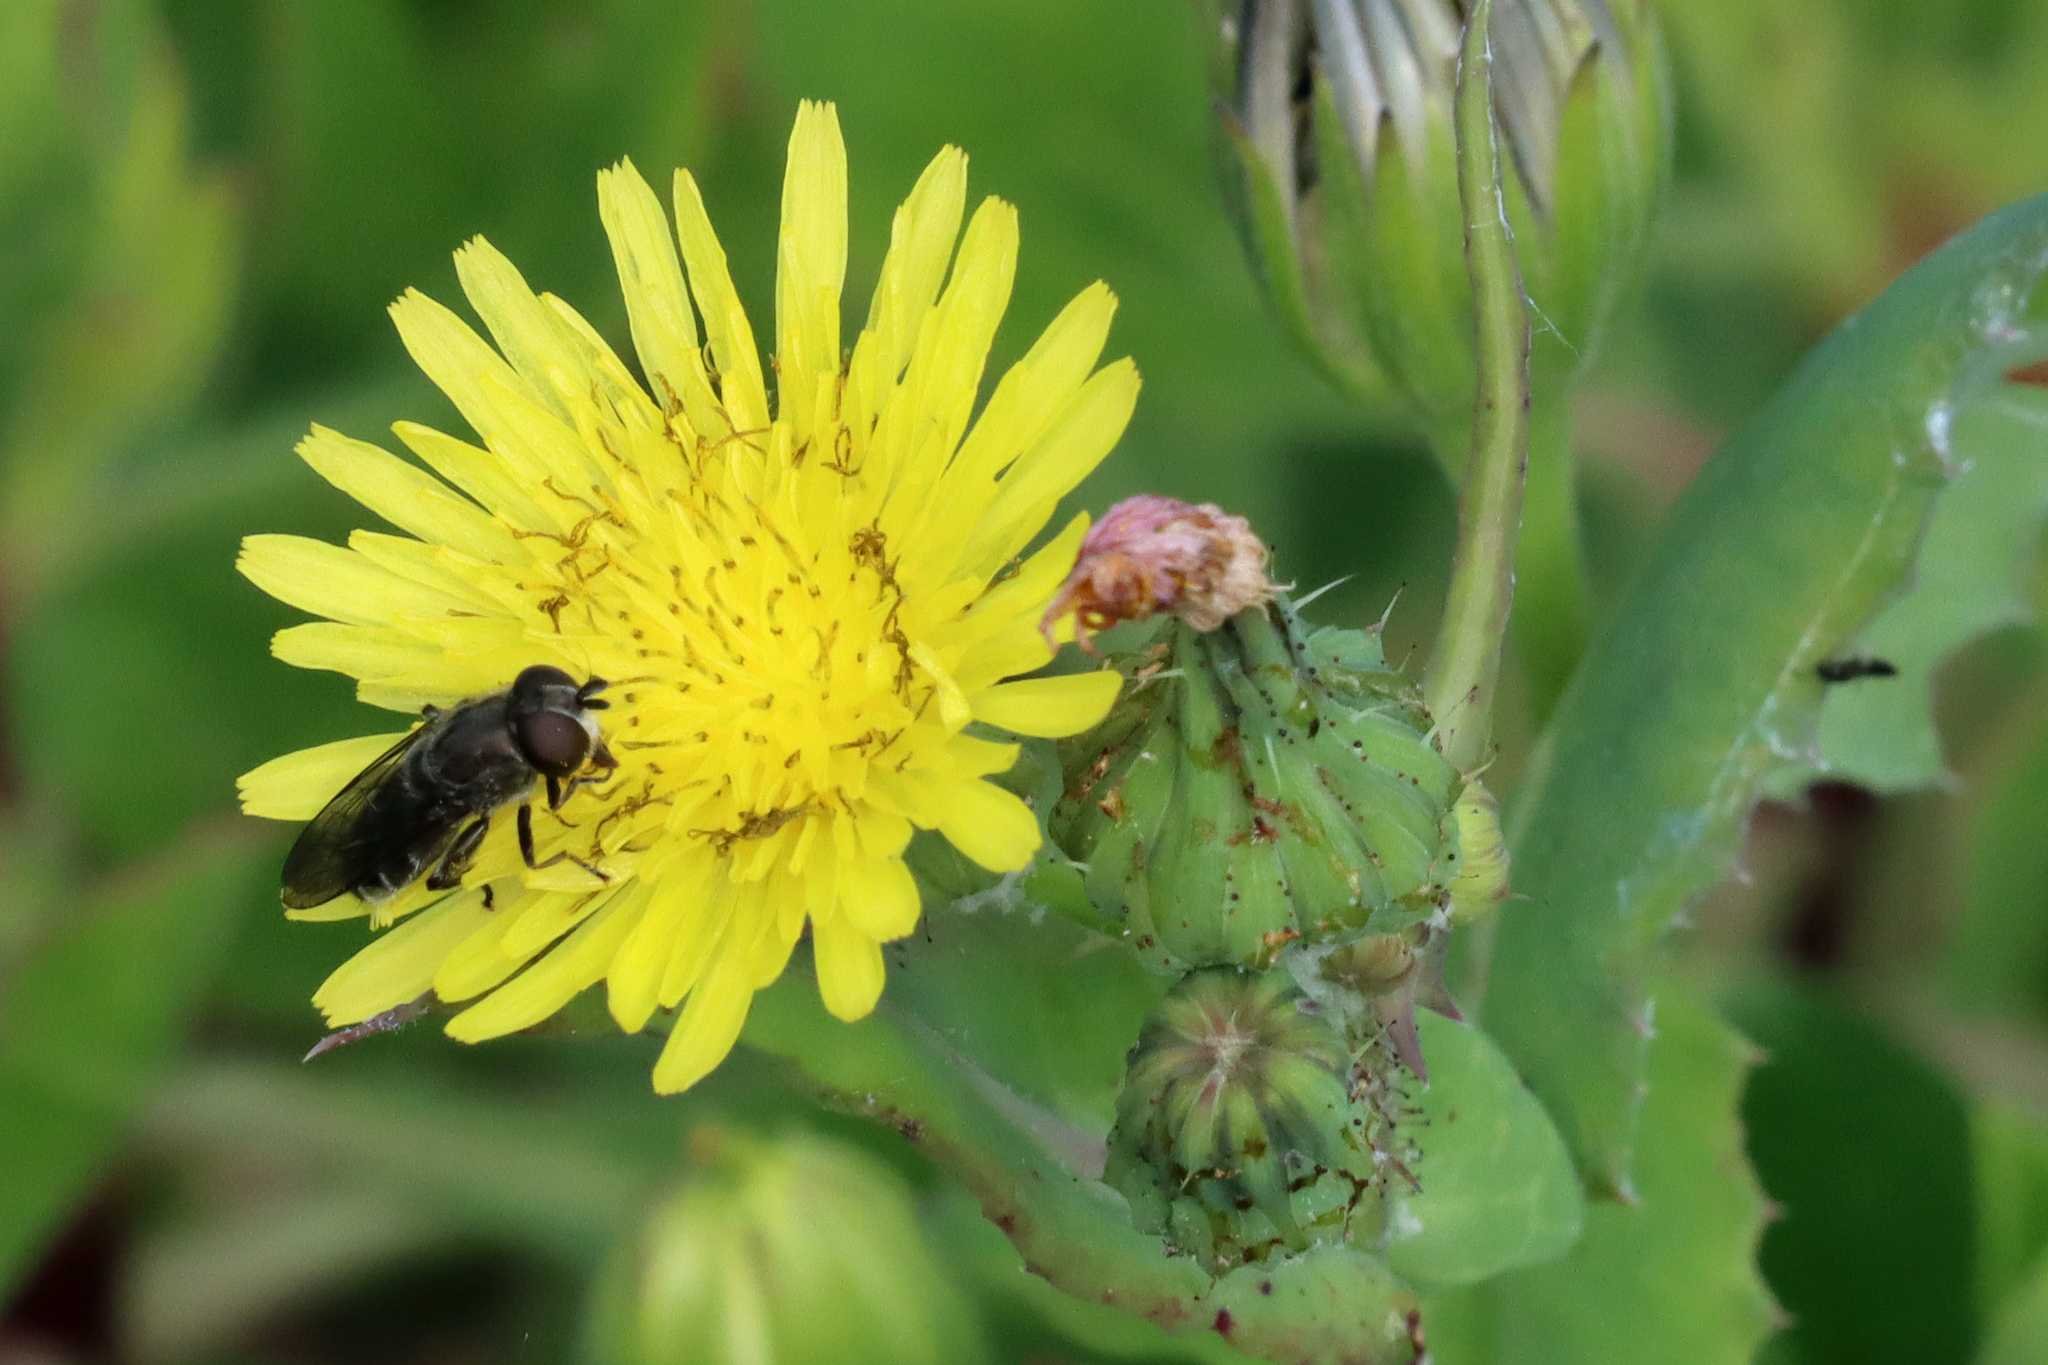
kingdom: Animalia
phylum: Arthropoda
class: Insecta
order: Diptera
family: Syrphidae
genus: Eumerus
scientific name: Eumerus hispidus
